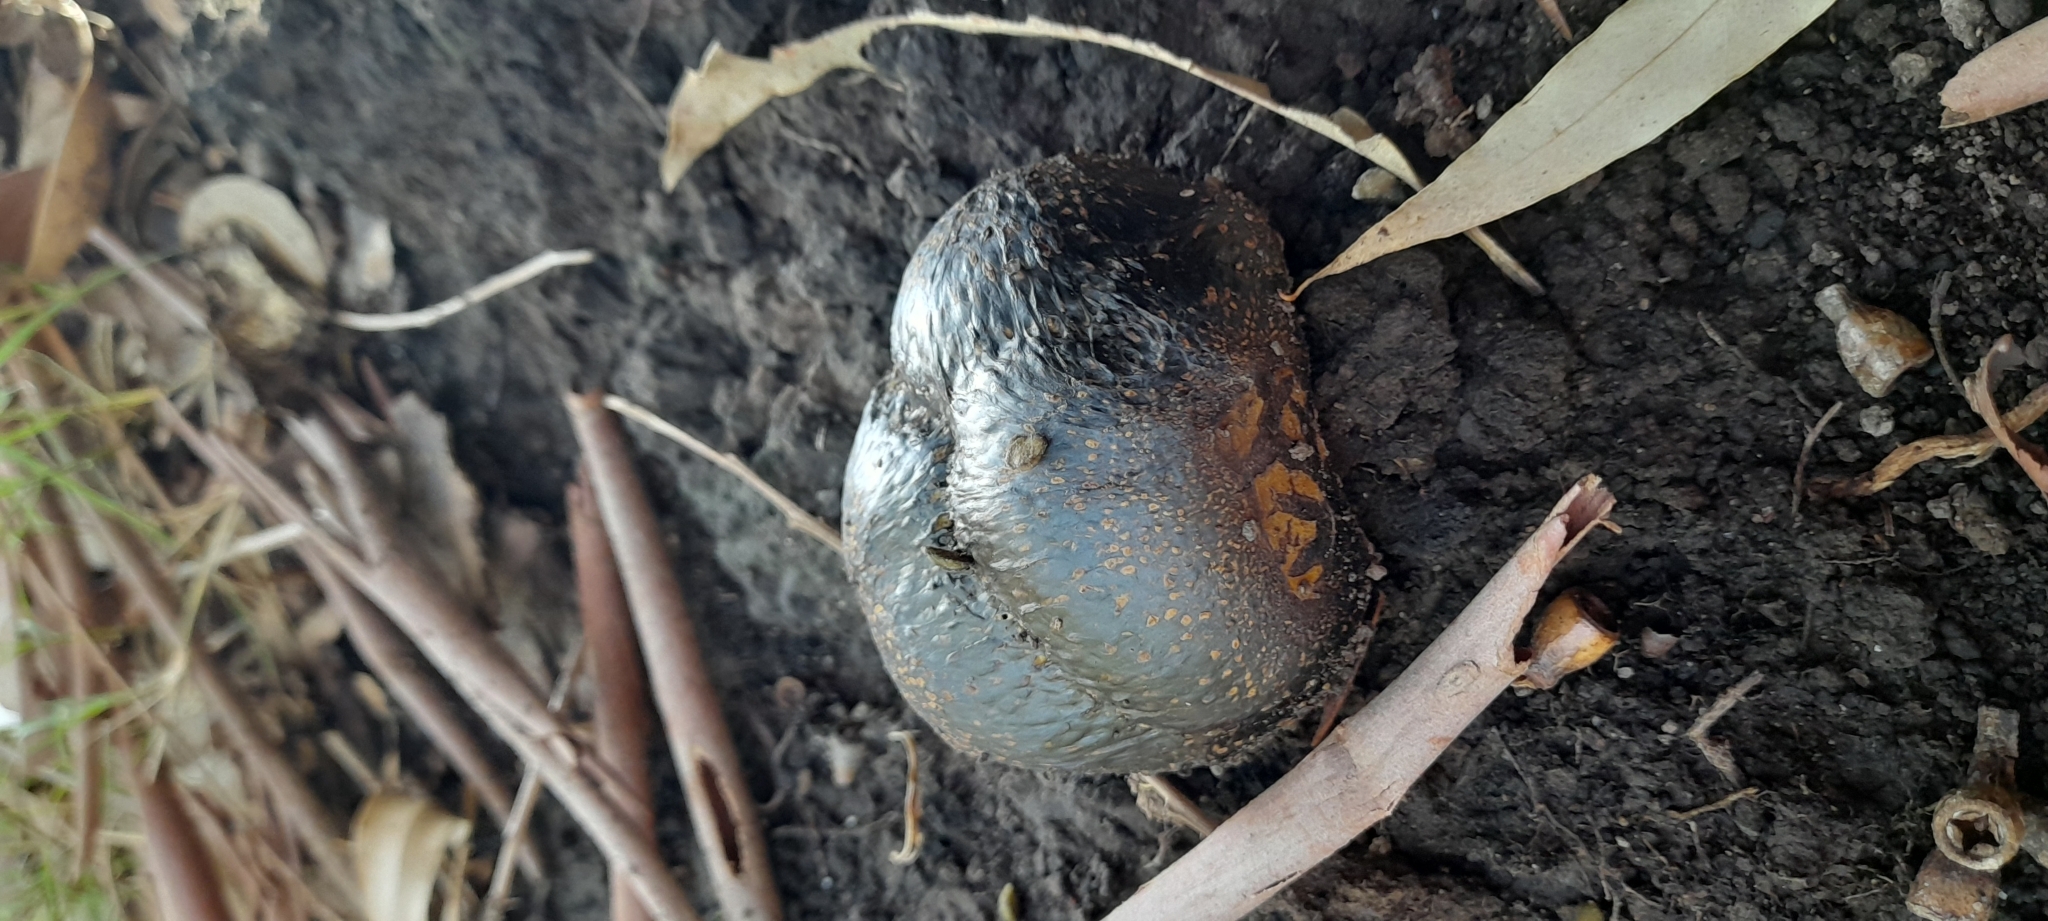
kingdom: Fungi
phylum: Basidiomycota
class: Agaricomycetes
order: Boletales
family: Sclerodermataceae
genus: Pisolithus
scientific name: Pisolithus arhizus
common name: Dyeball
